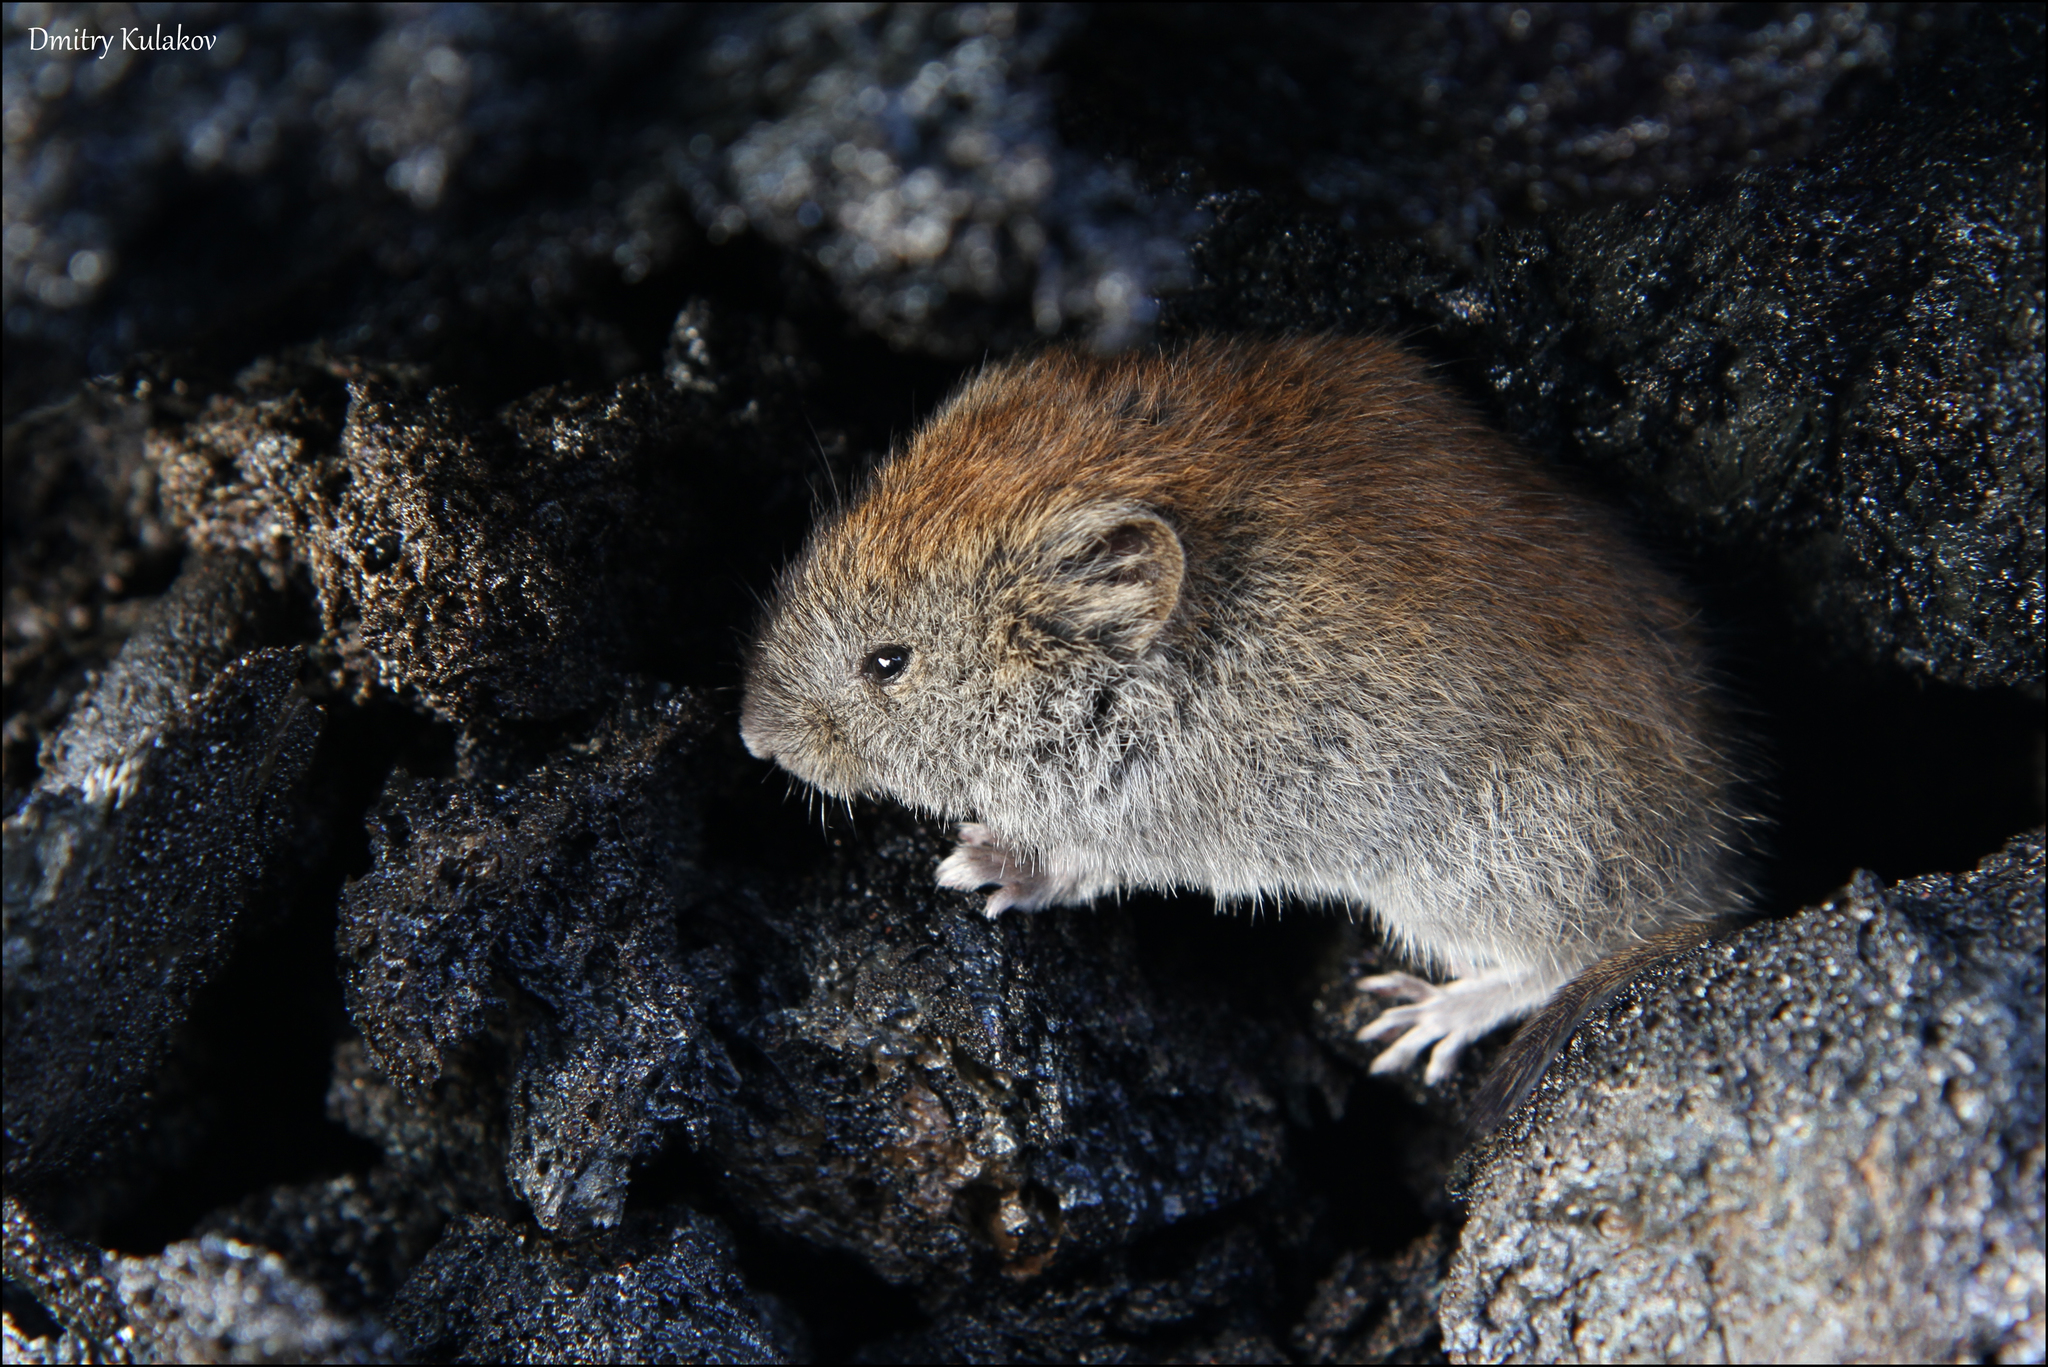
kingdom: Animalia
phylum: Chordata
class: Mammalia
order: Rodentia
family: Cricetidae
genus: Myodes
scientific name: Myodes rufocanus
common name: Gray red-backed vole
